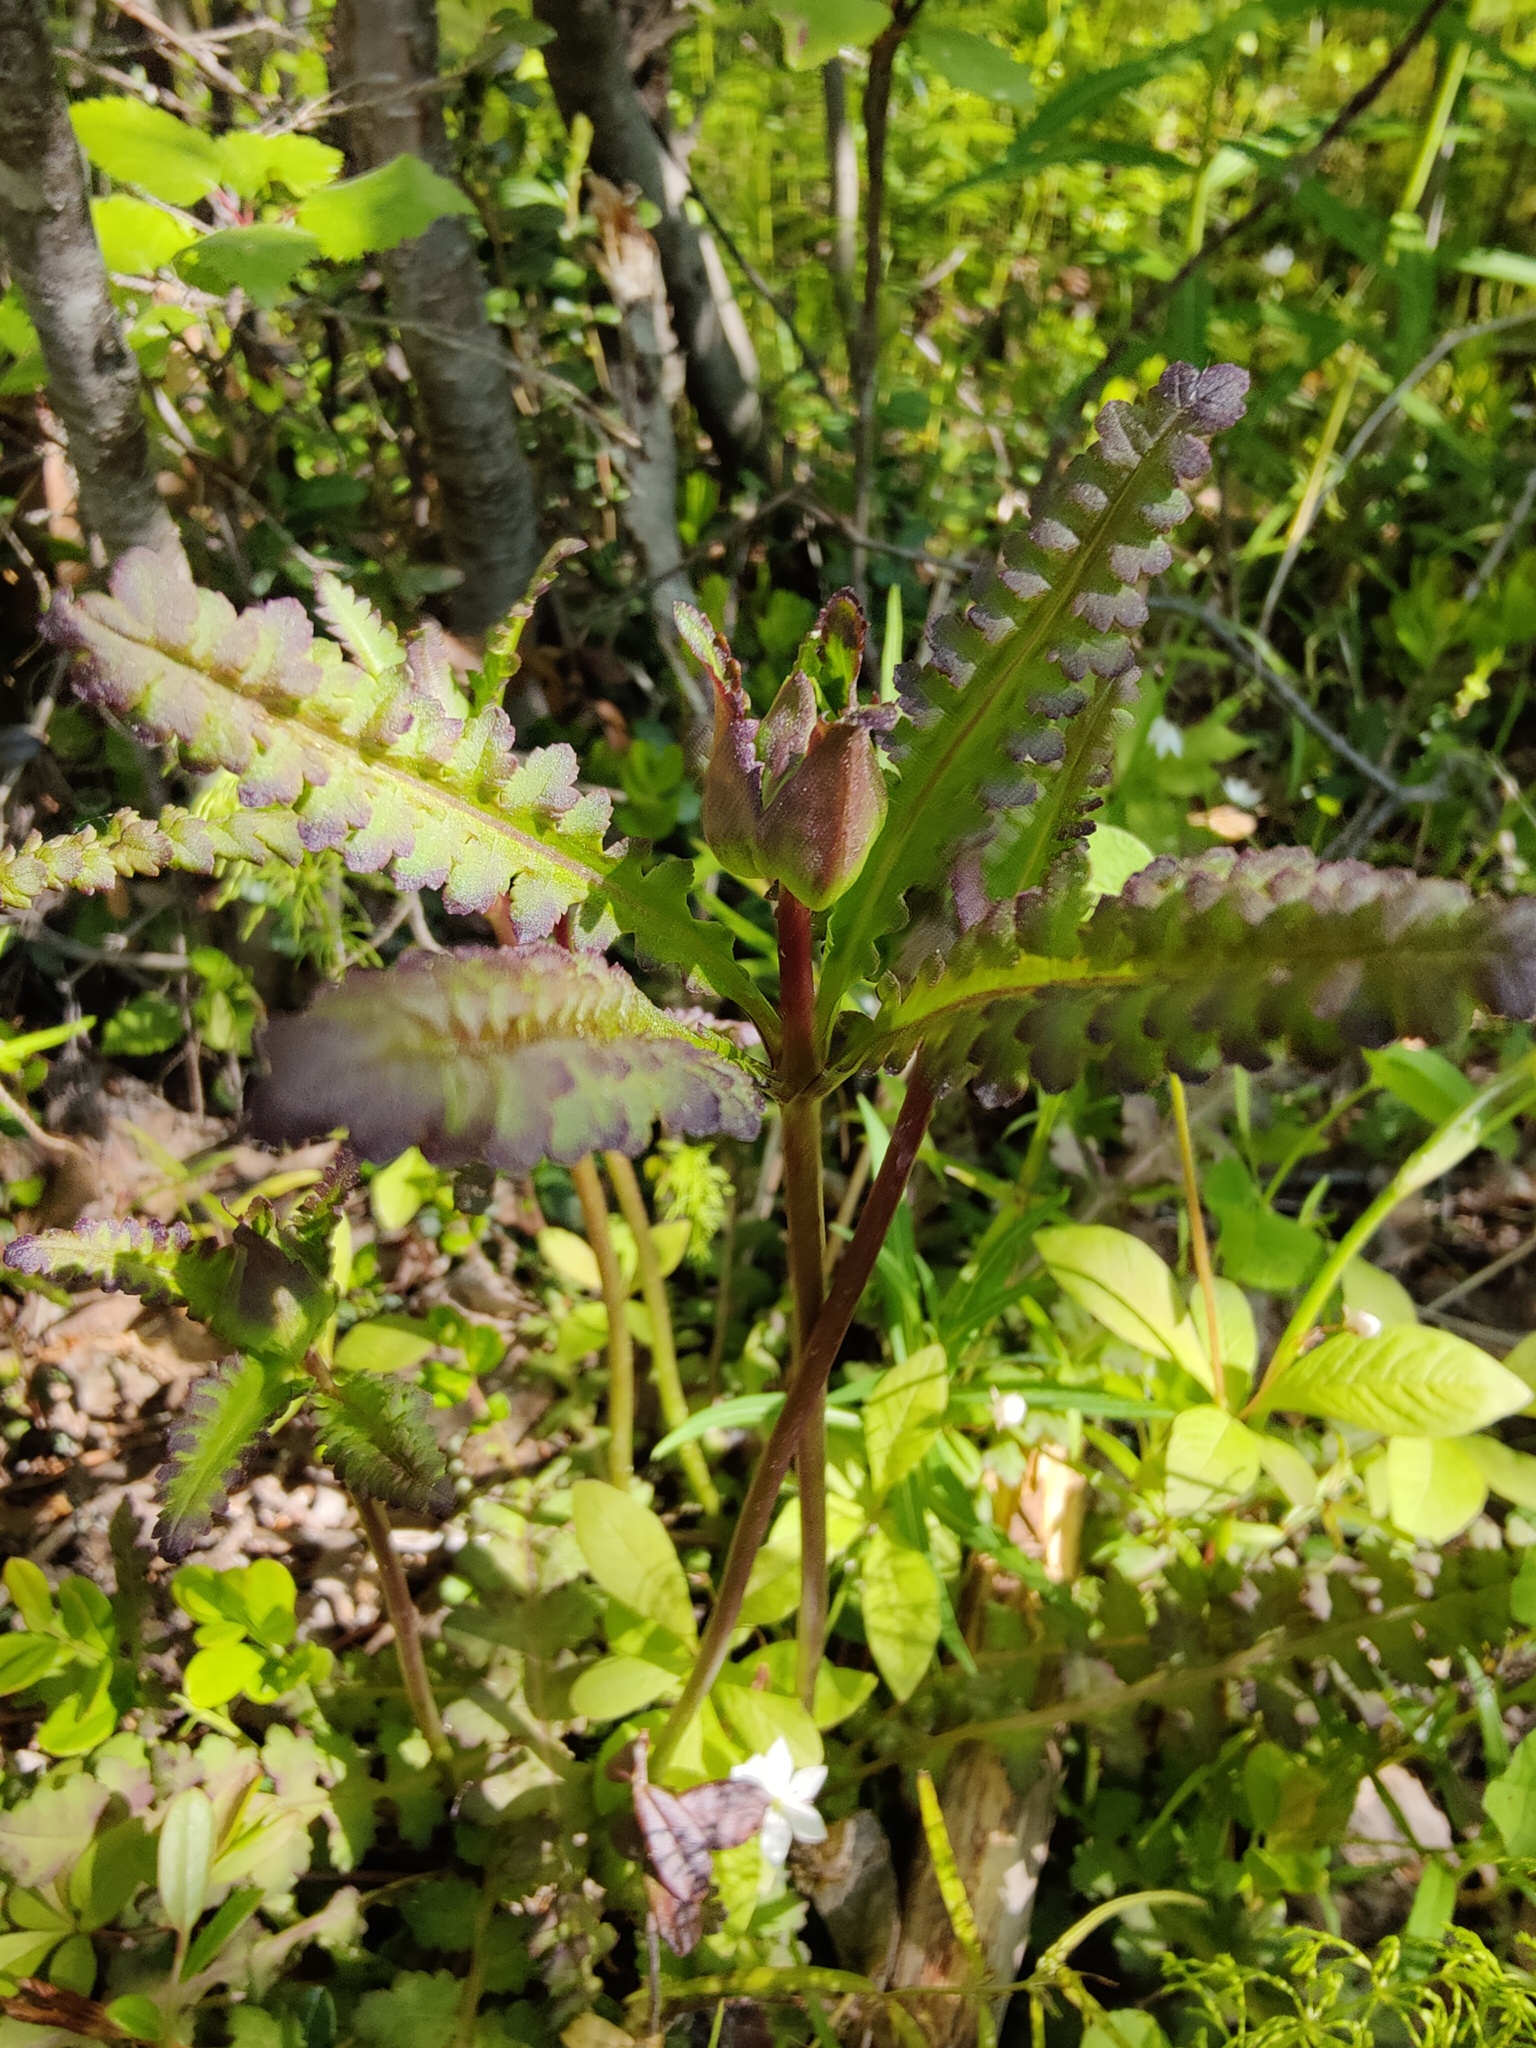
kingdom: Plantae
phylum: Tracheophyta
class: Magnoliopsida
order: Lamiales
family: Orobanchaceae
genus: Pedicularis
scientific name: Pedicularis sceptrum-carolinum
